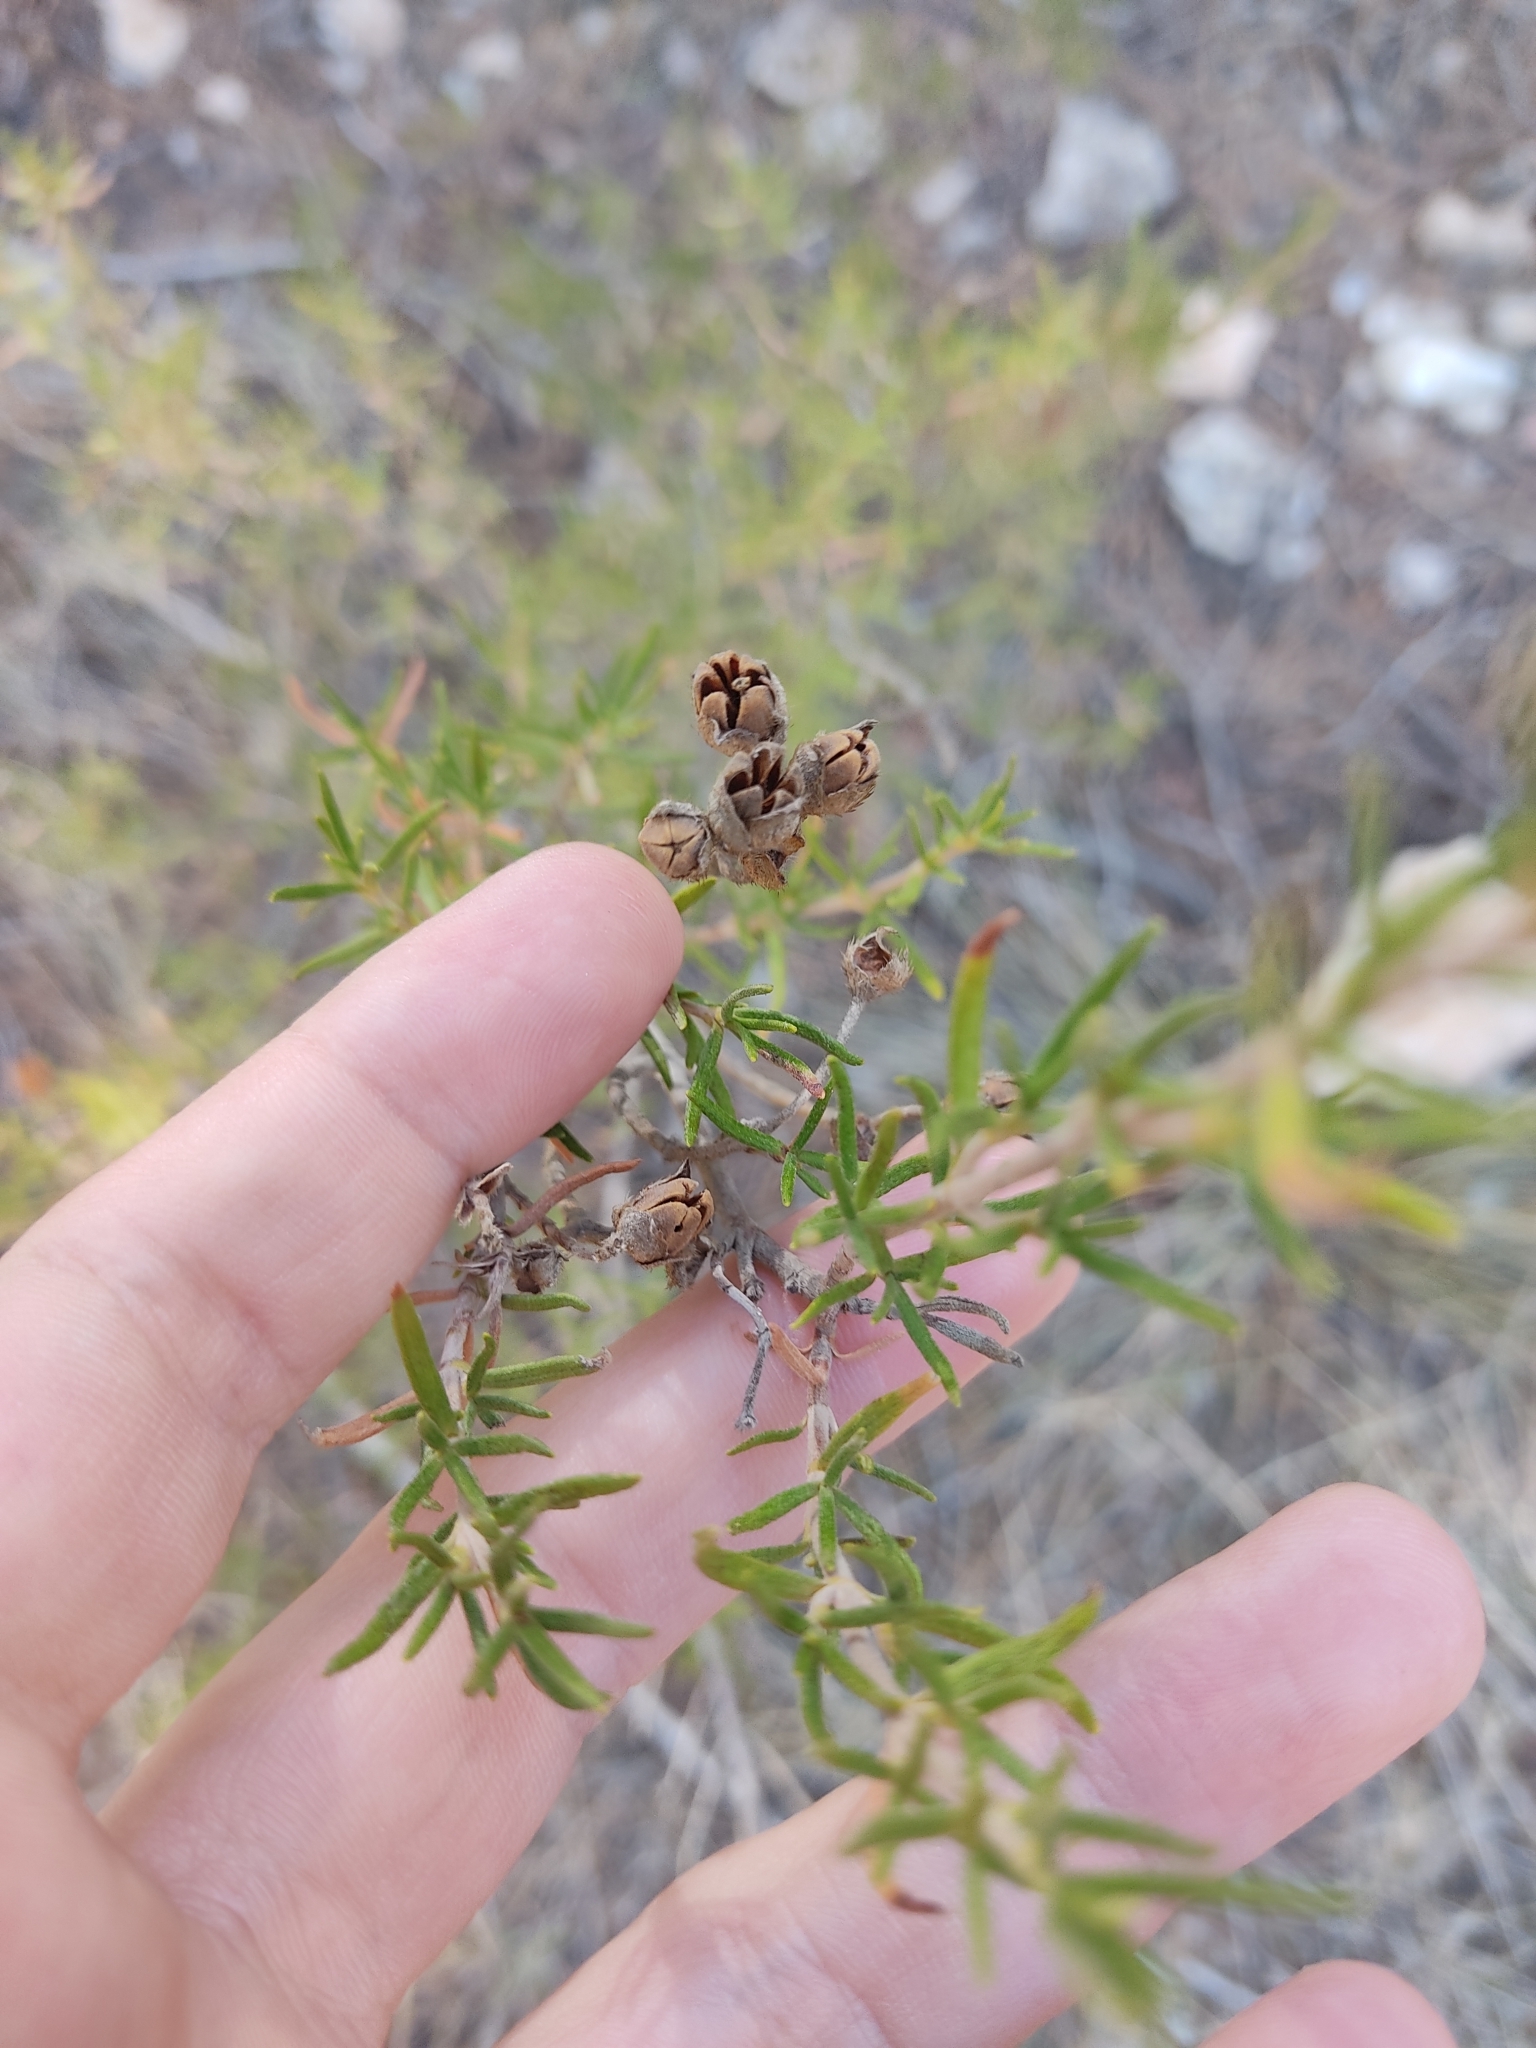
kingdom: Plantae
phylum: Tracheophyta
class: Magnoliopsida
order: Malvales
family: Cistaceae
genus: Cistus
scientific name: Cistus clusii
